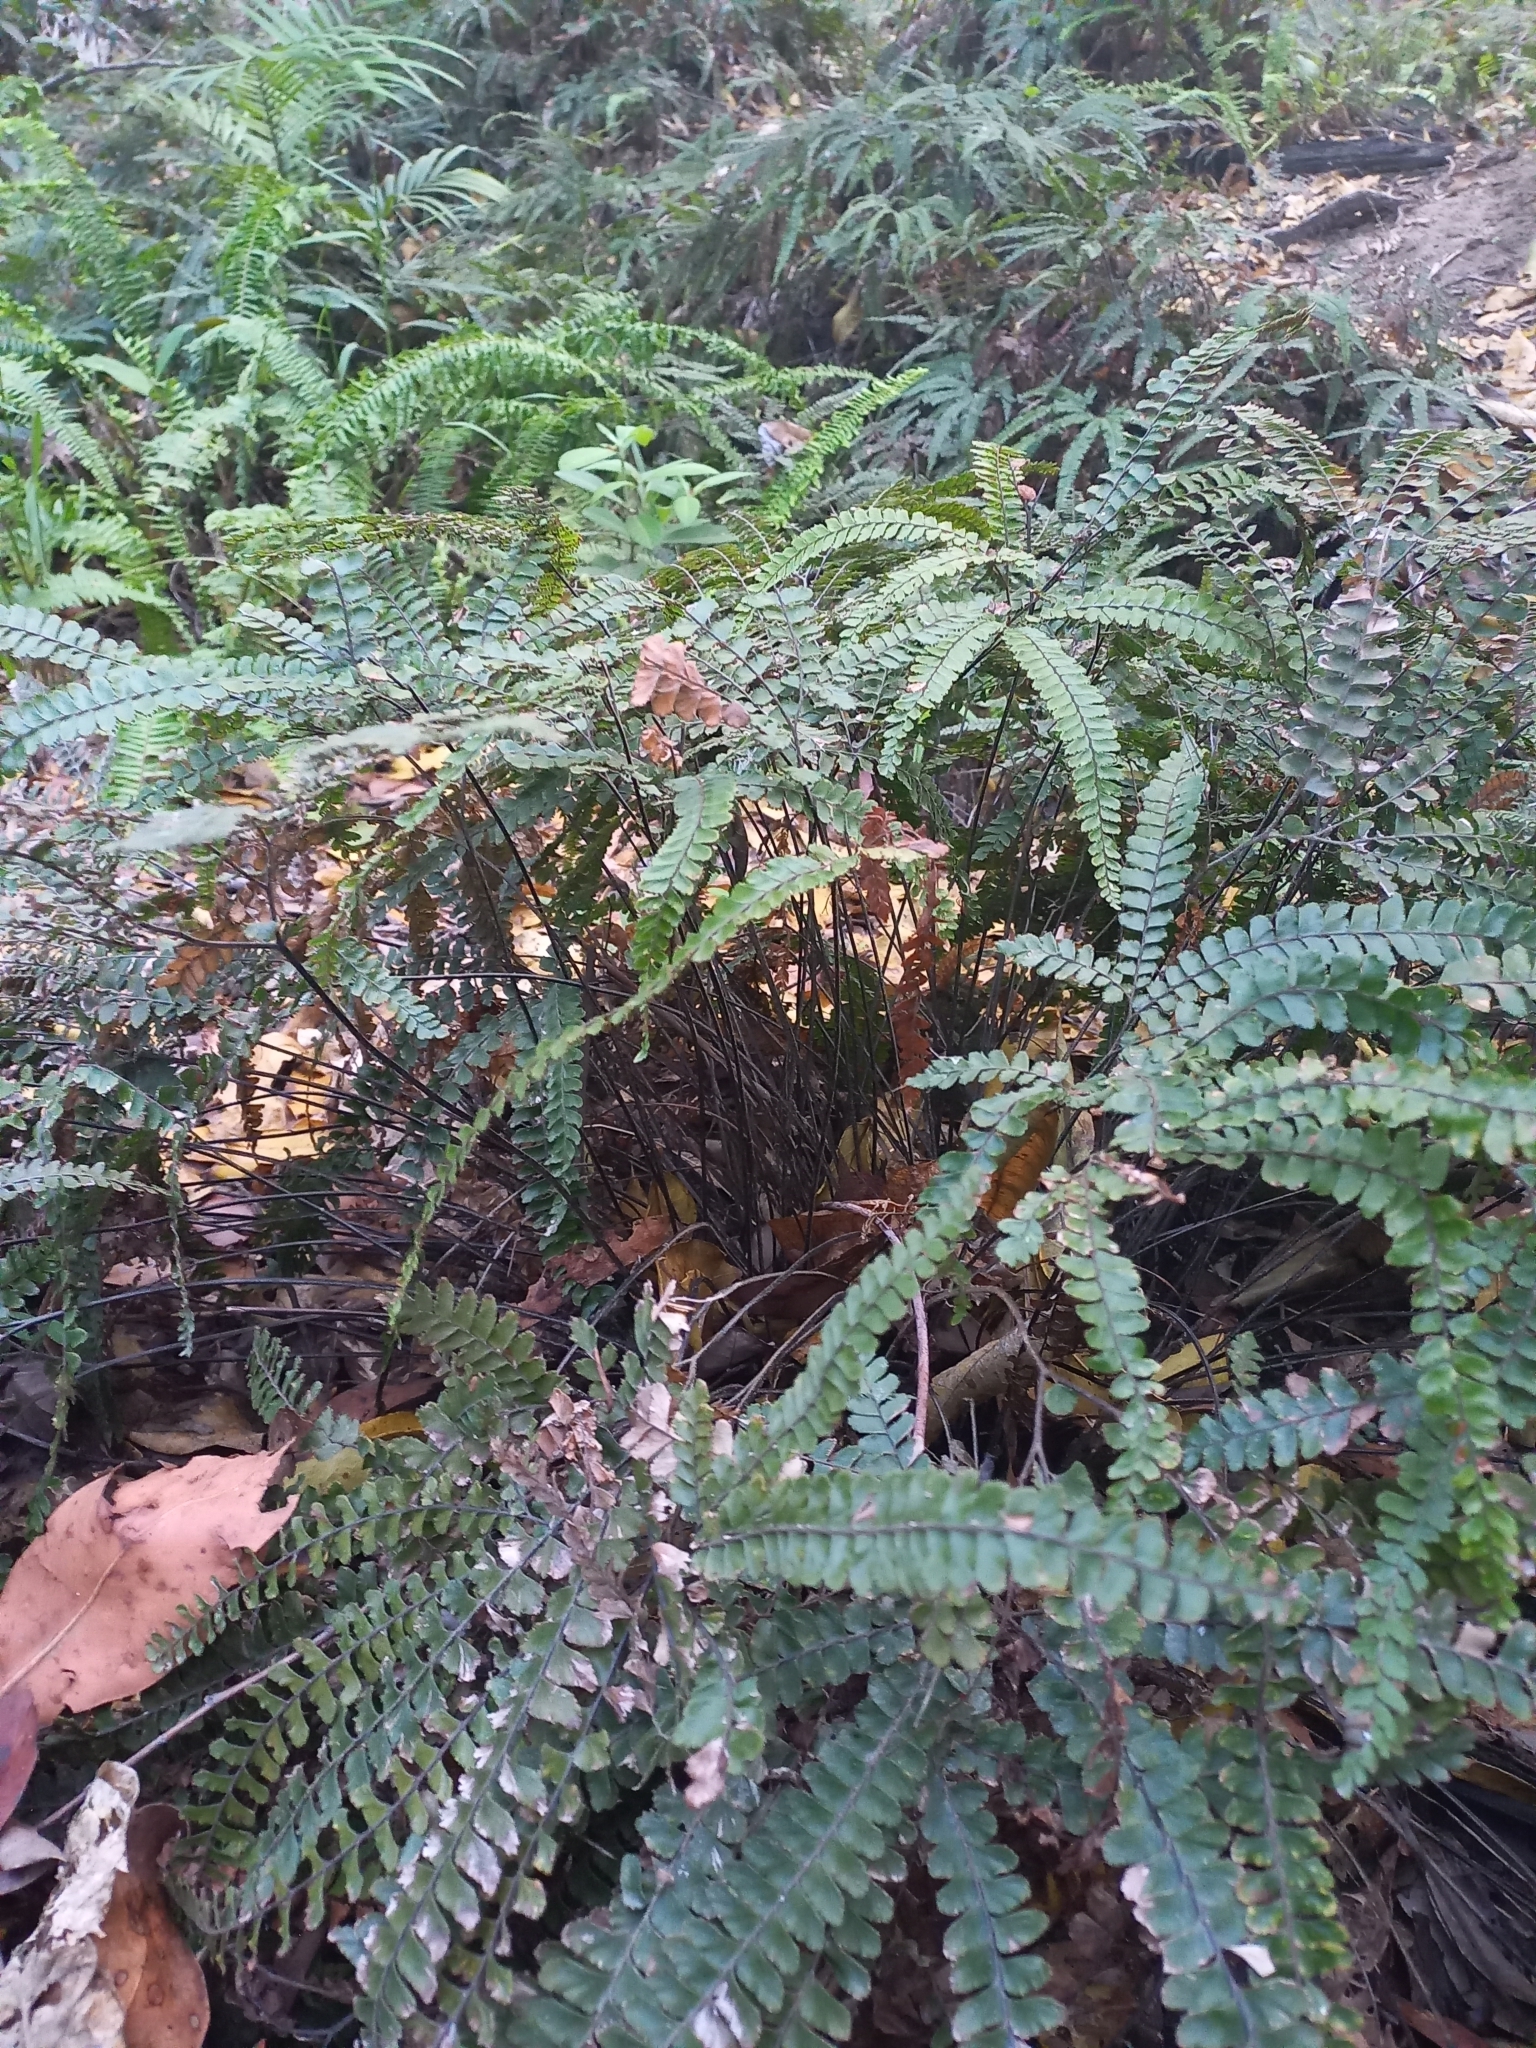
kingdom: Plantae
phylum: Tracheophyta
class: Polypodiopsida
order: Polypodiales
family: Pteridaceae
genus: Adiantum
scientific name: Adiantum hispidulum
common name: Rough maidenhair
